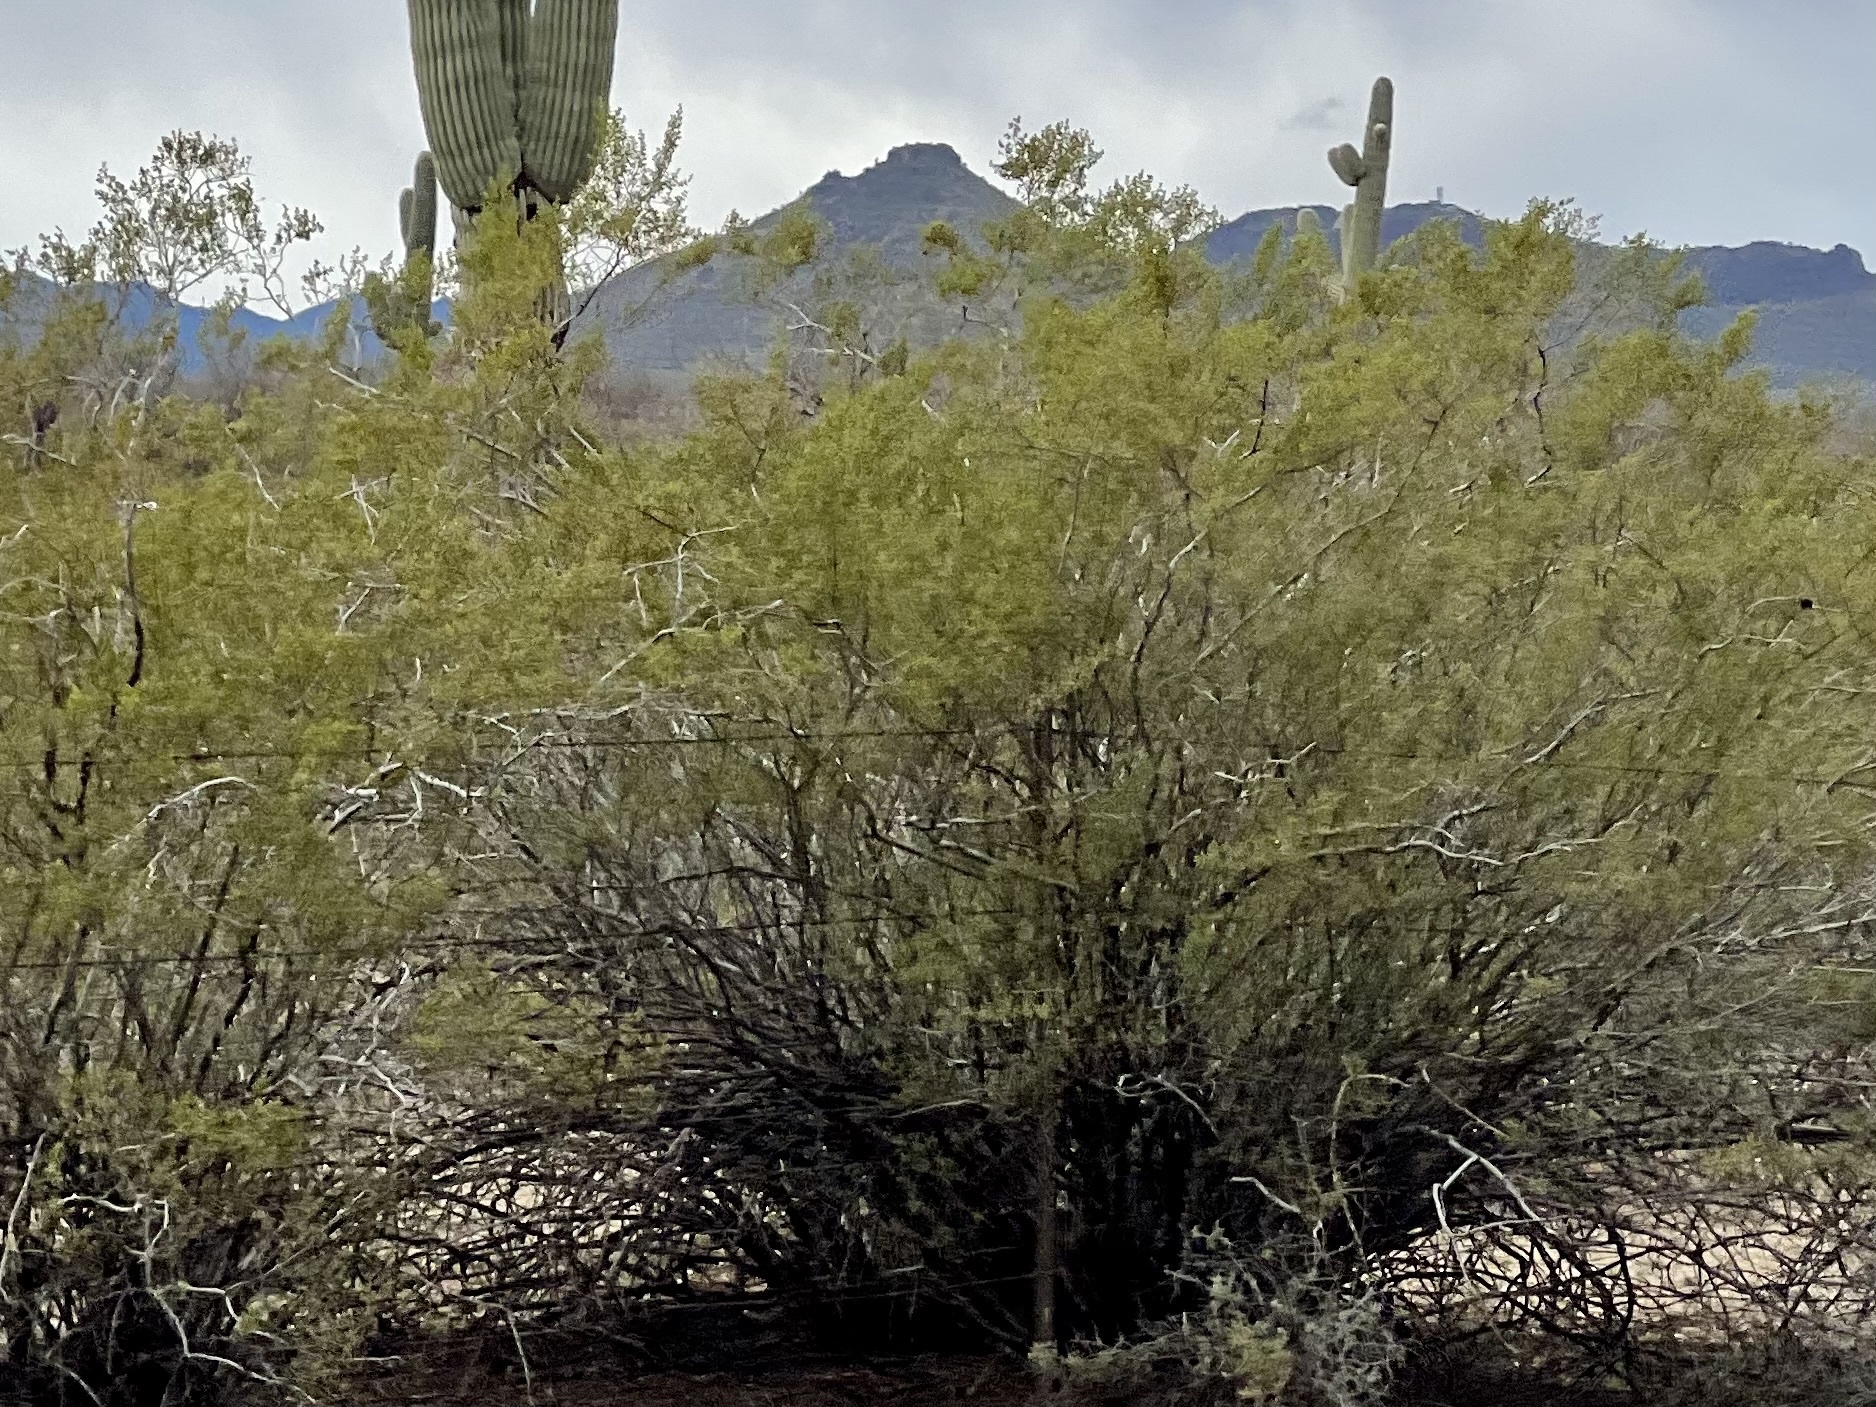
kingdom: Plantae
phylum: Tracheophyta
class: Magnoliopsida
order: Zygophyllales
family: Zygophyllaceae
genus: Larrea
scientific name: Larrea tridentata
